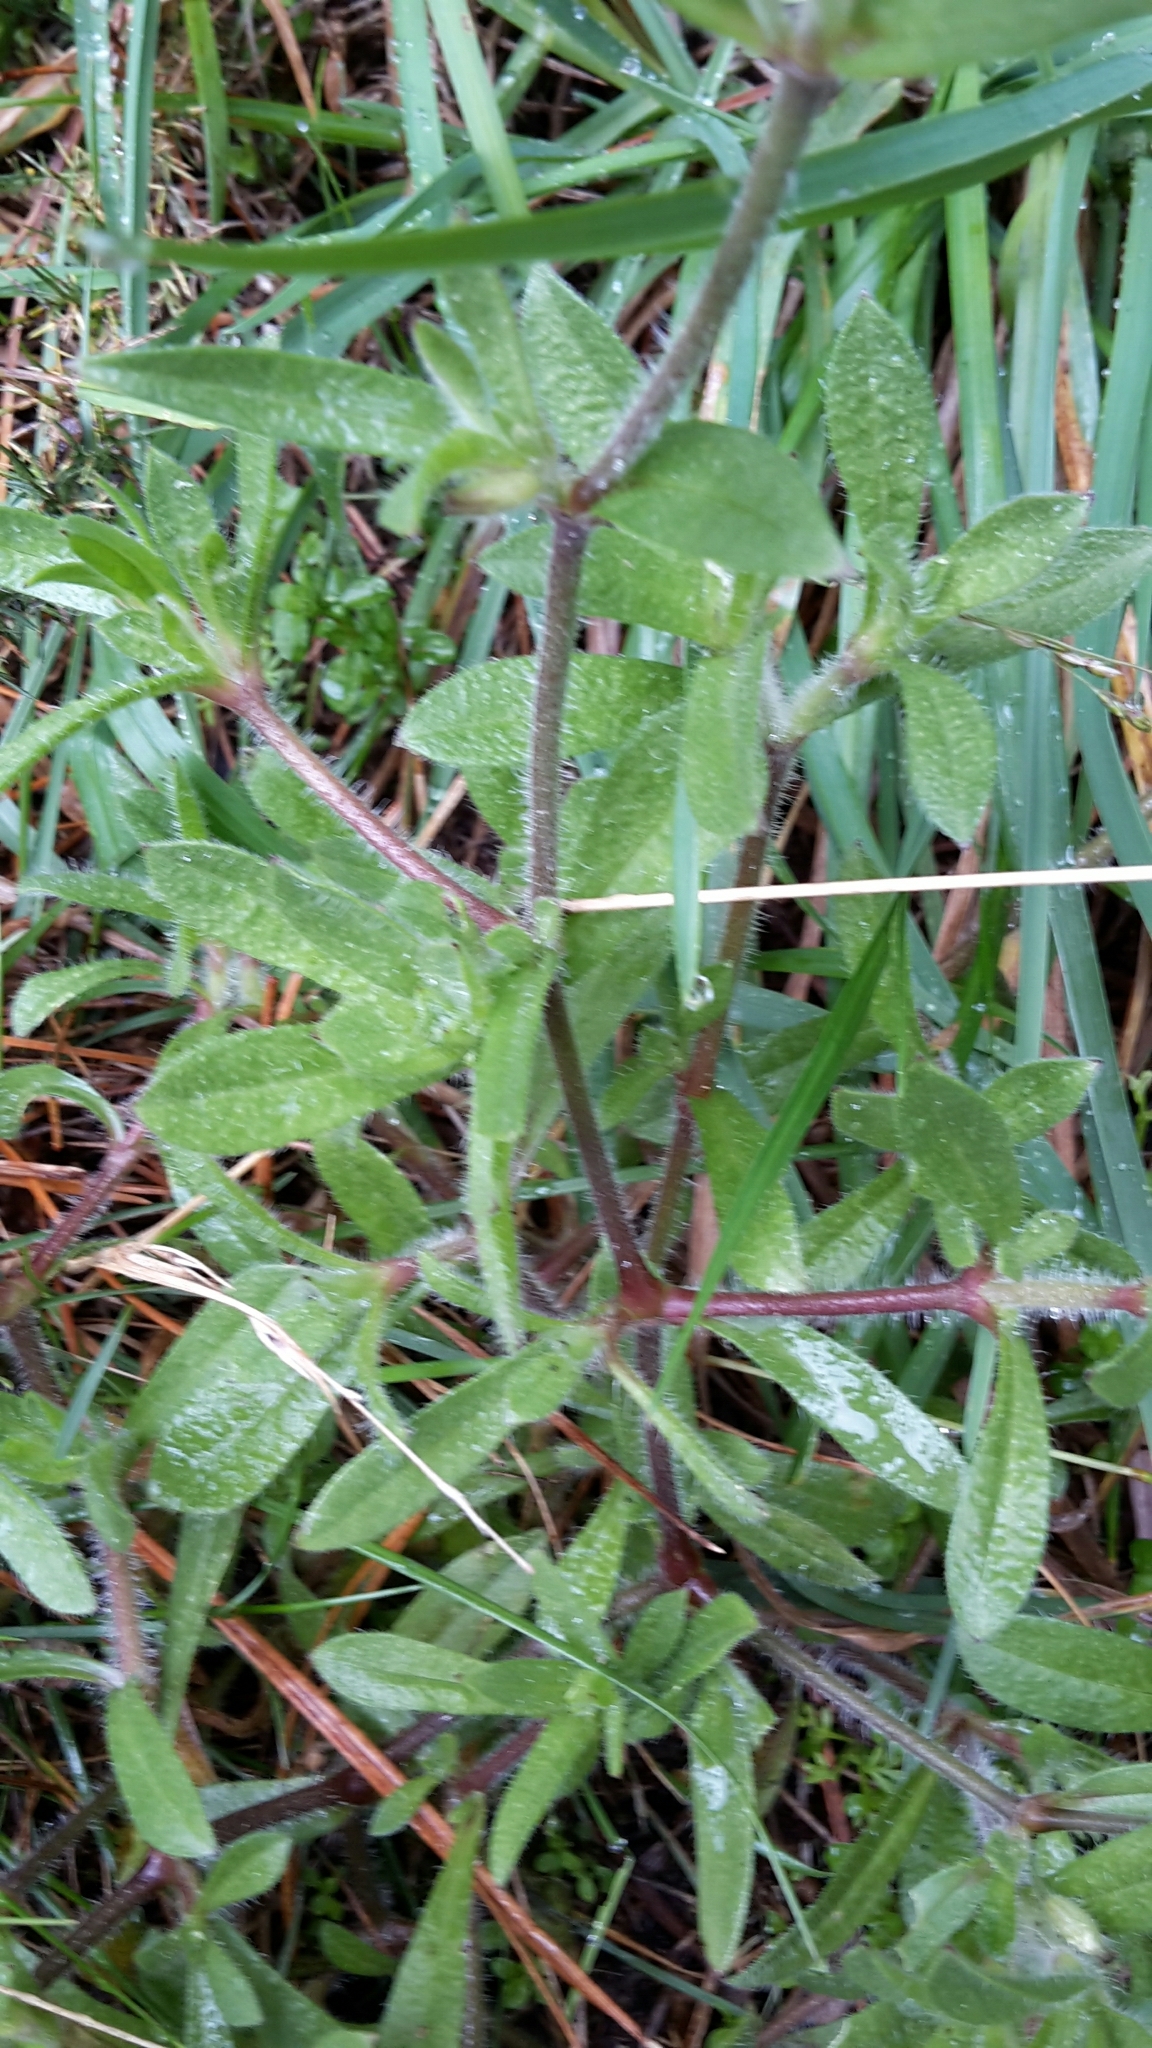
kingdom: Plantae
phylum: Tracheophyta
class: Magnoliopsida
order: Caryophyllales
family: Caryophyllaceae
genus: Silene
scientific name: Silene gallica
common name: Small-flowered catchfly
